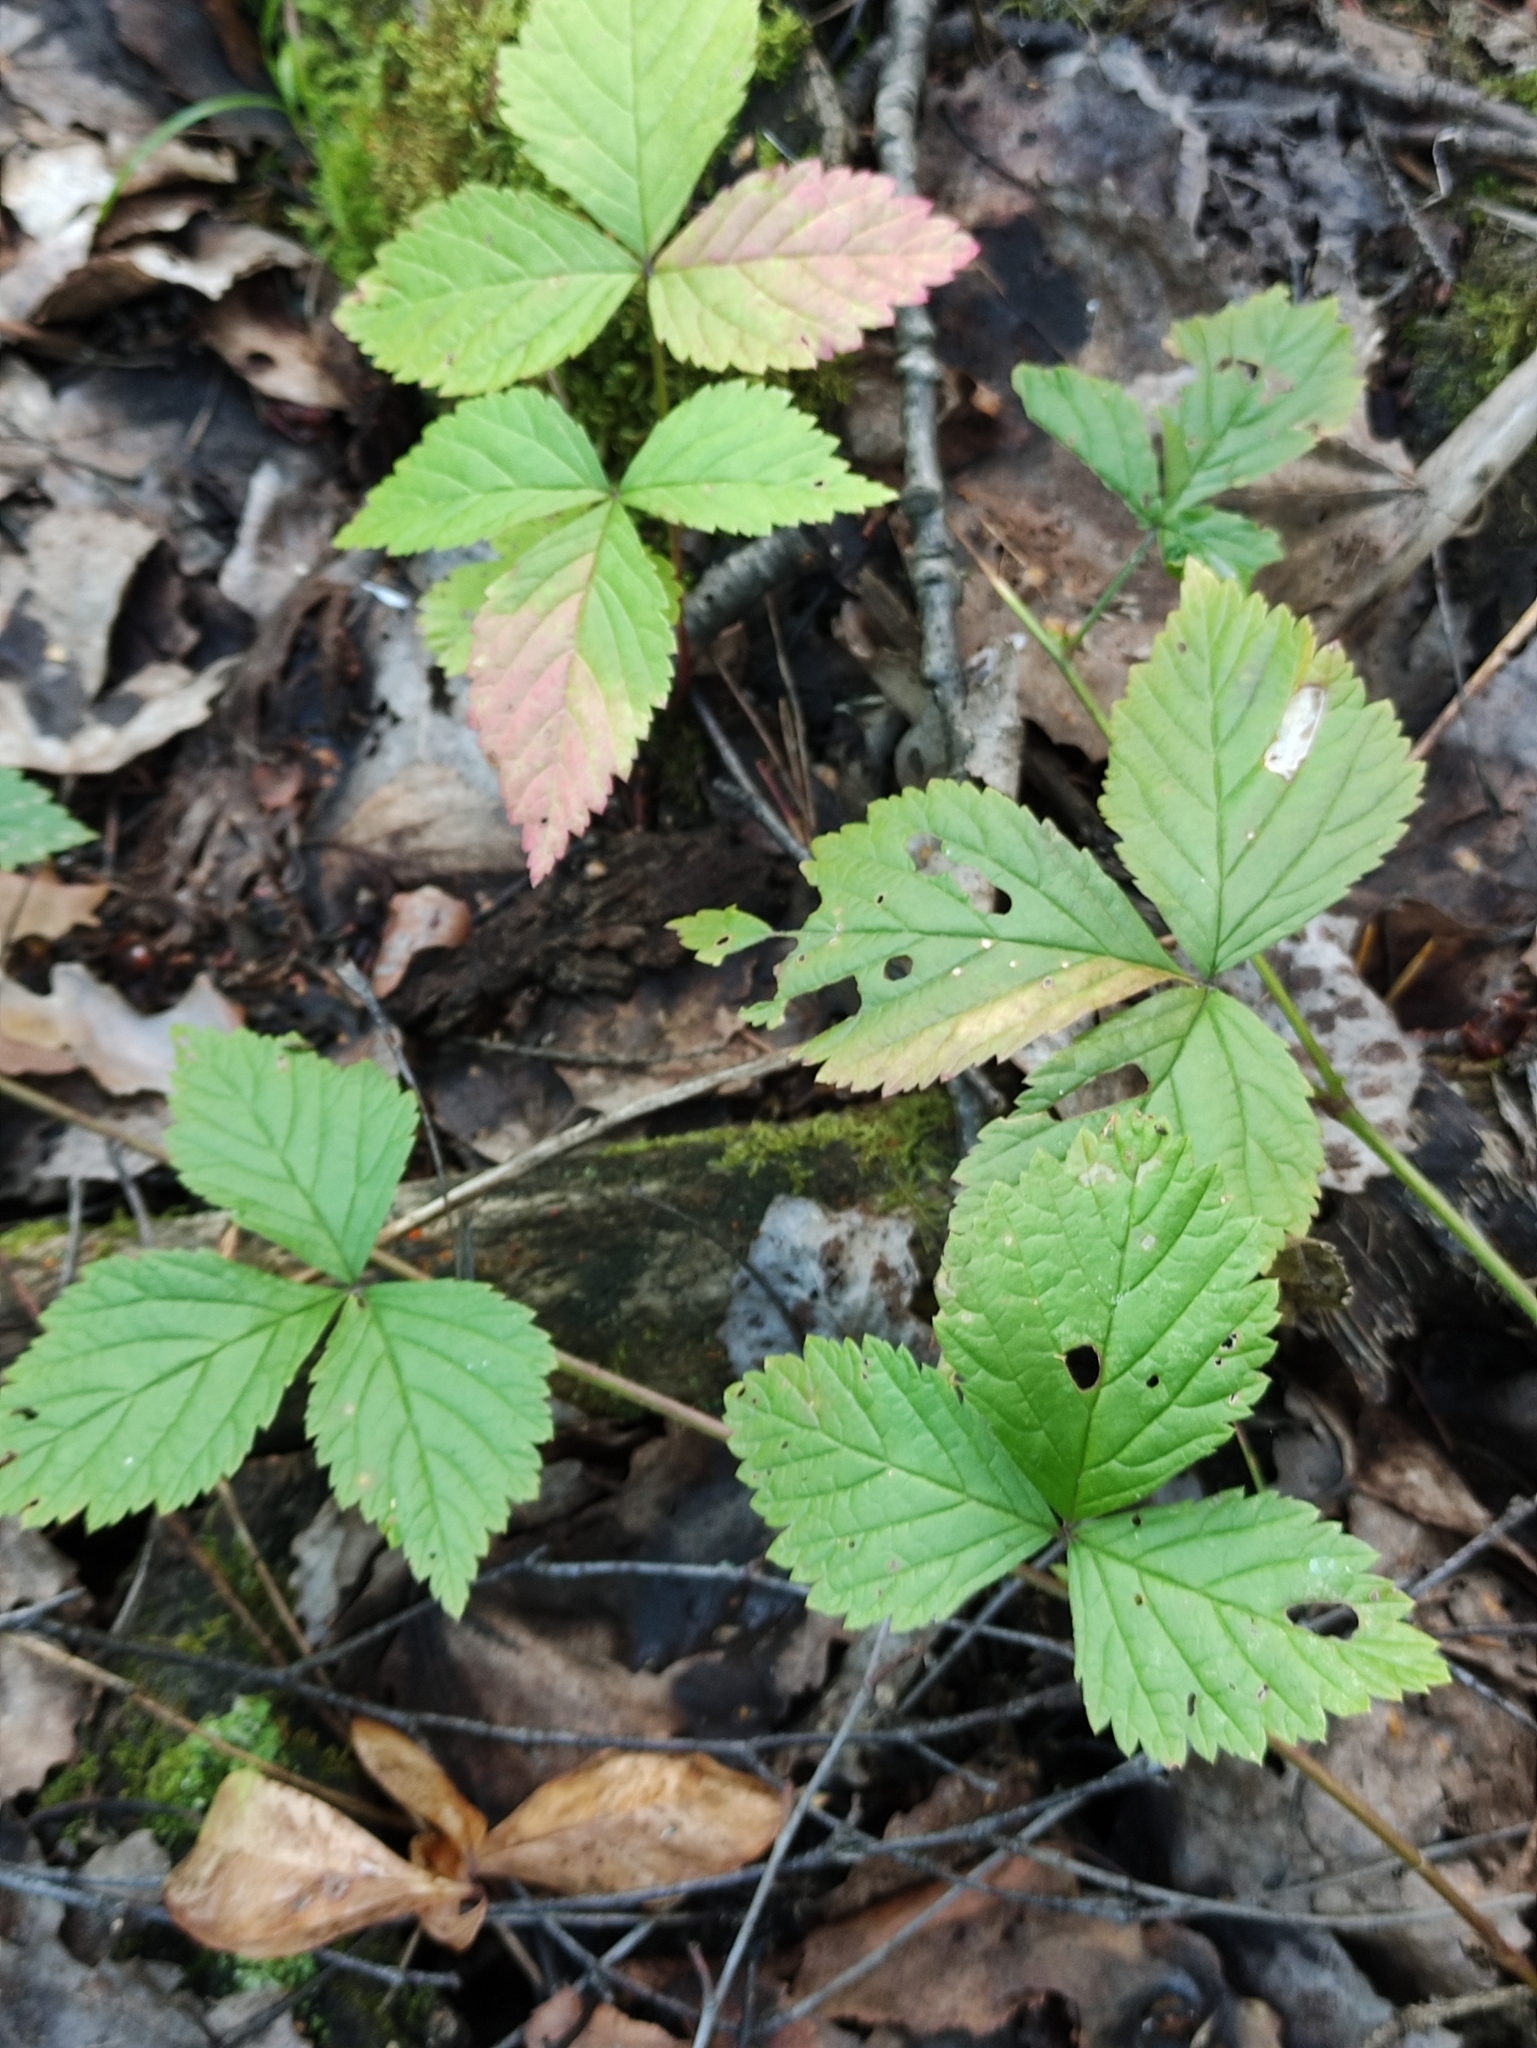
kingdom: Plantae
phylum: Tracheophyta
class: Magnoliopsida
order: Rosales
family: Rosaceae
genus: Rubus
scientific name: Rubus saxatilis
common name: Stone bramble
